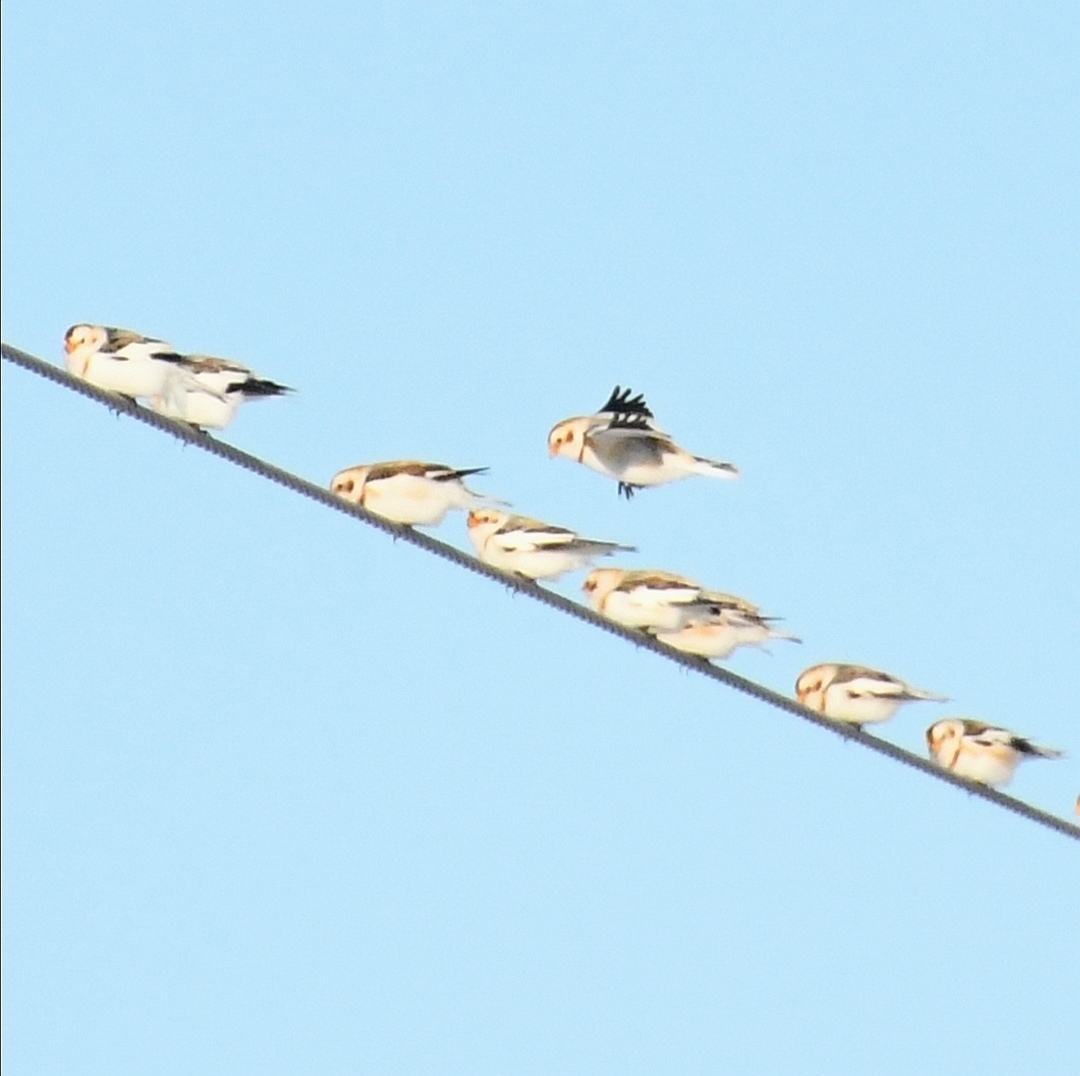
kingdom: Animalia
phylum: Chordata
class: Aves
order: Passeriformes
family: Calcariidae
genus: Plectrophenax
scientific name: Plectrophenax nivalis
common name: Snow bunting
